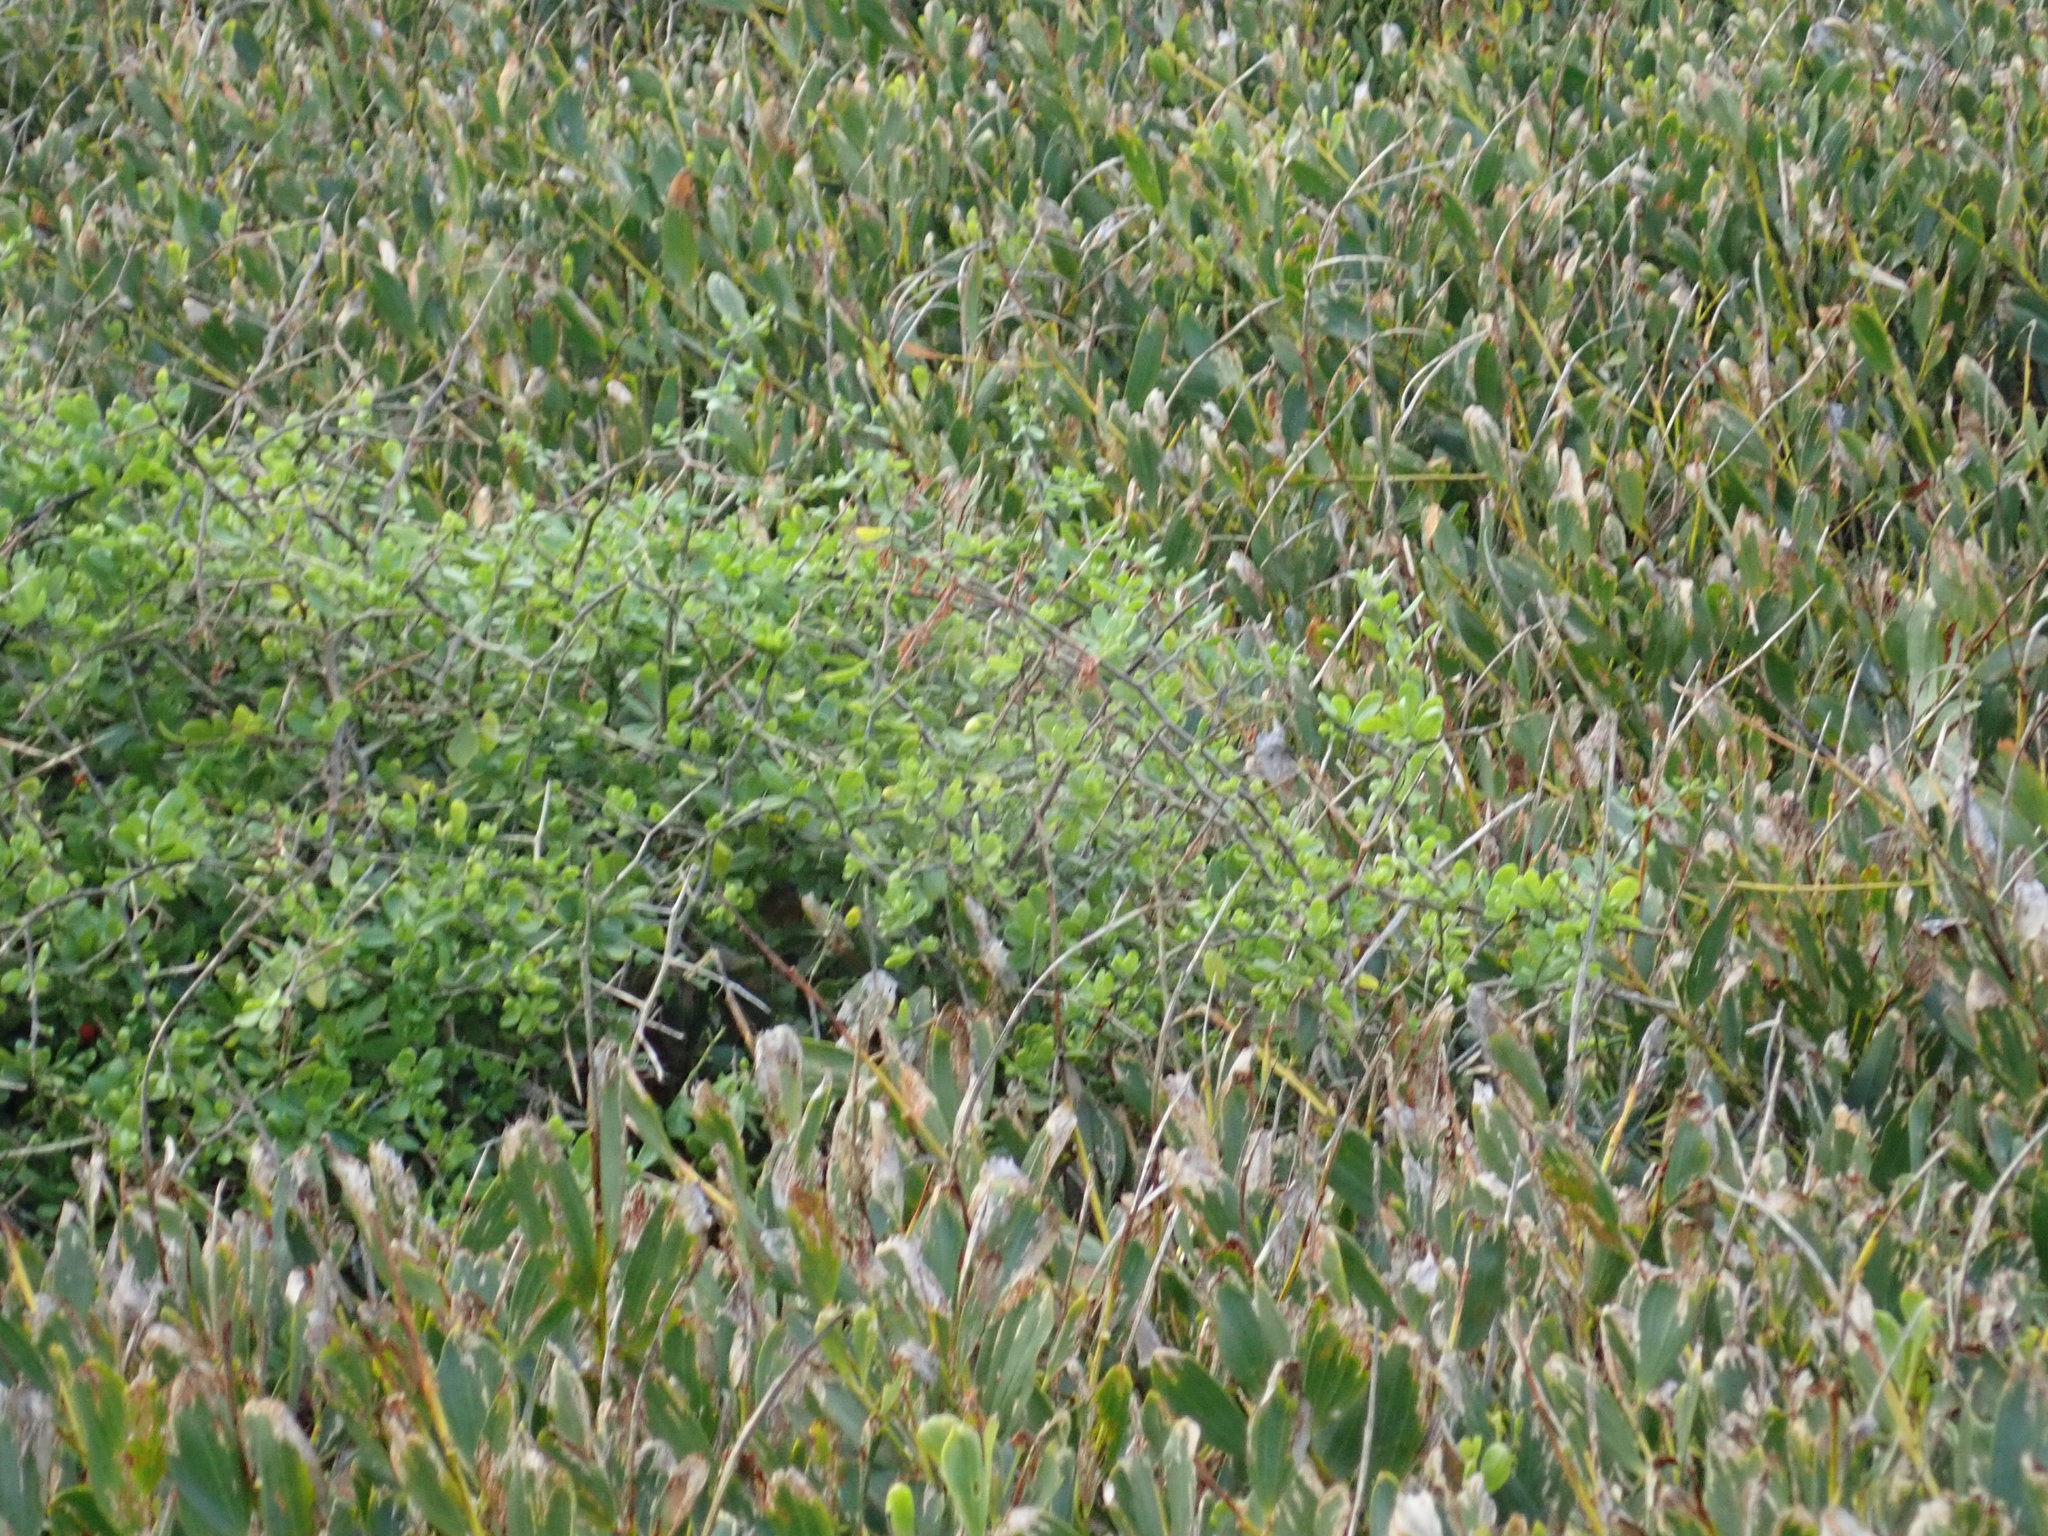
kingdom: Plantae
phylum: Tracheophyta
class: Magnoliopsida
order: Solanales
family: Solanaceae
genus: Lycium
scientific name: Lycium ferocissimum
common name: African boxthorn
